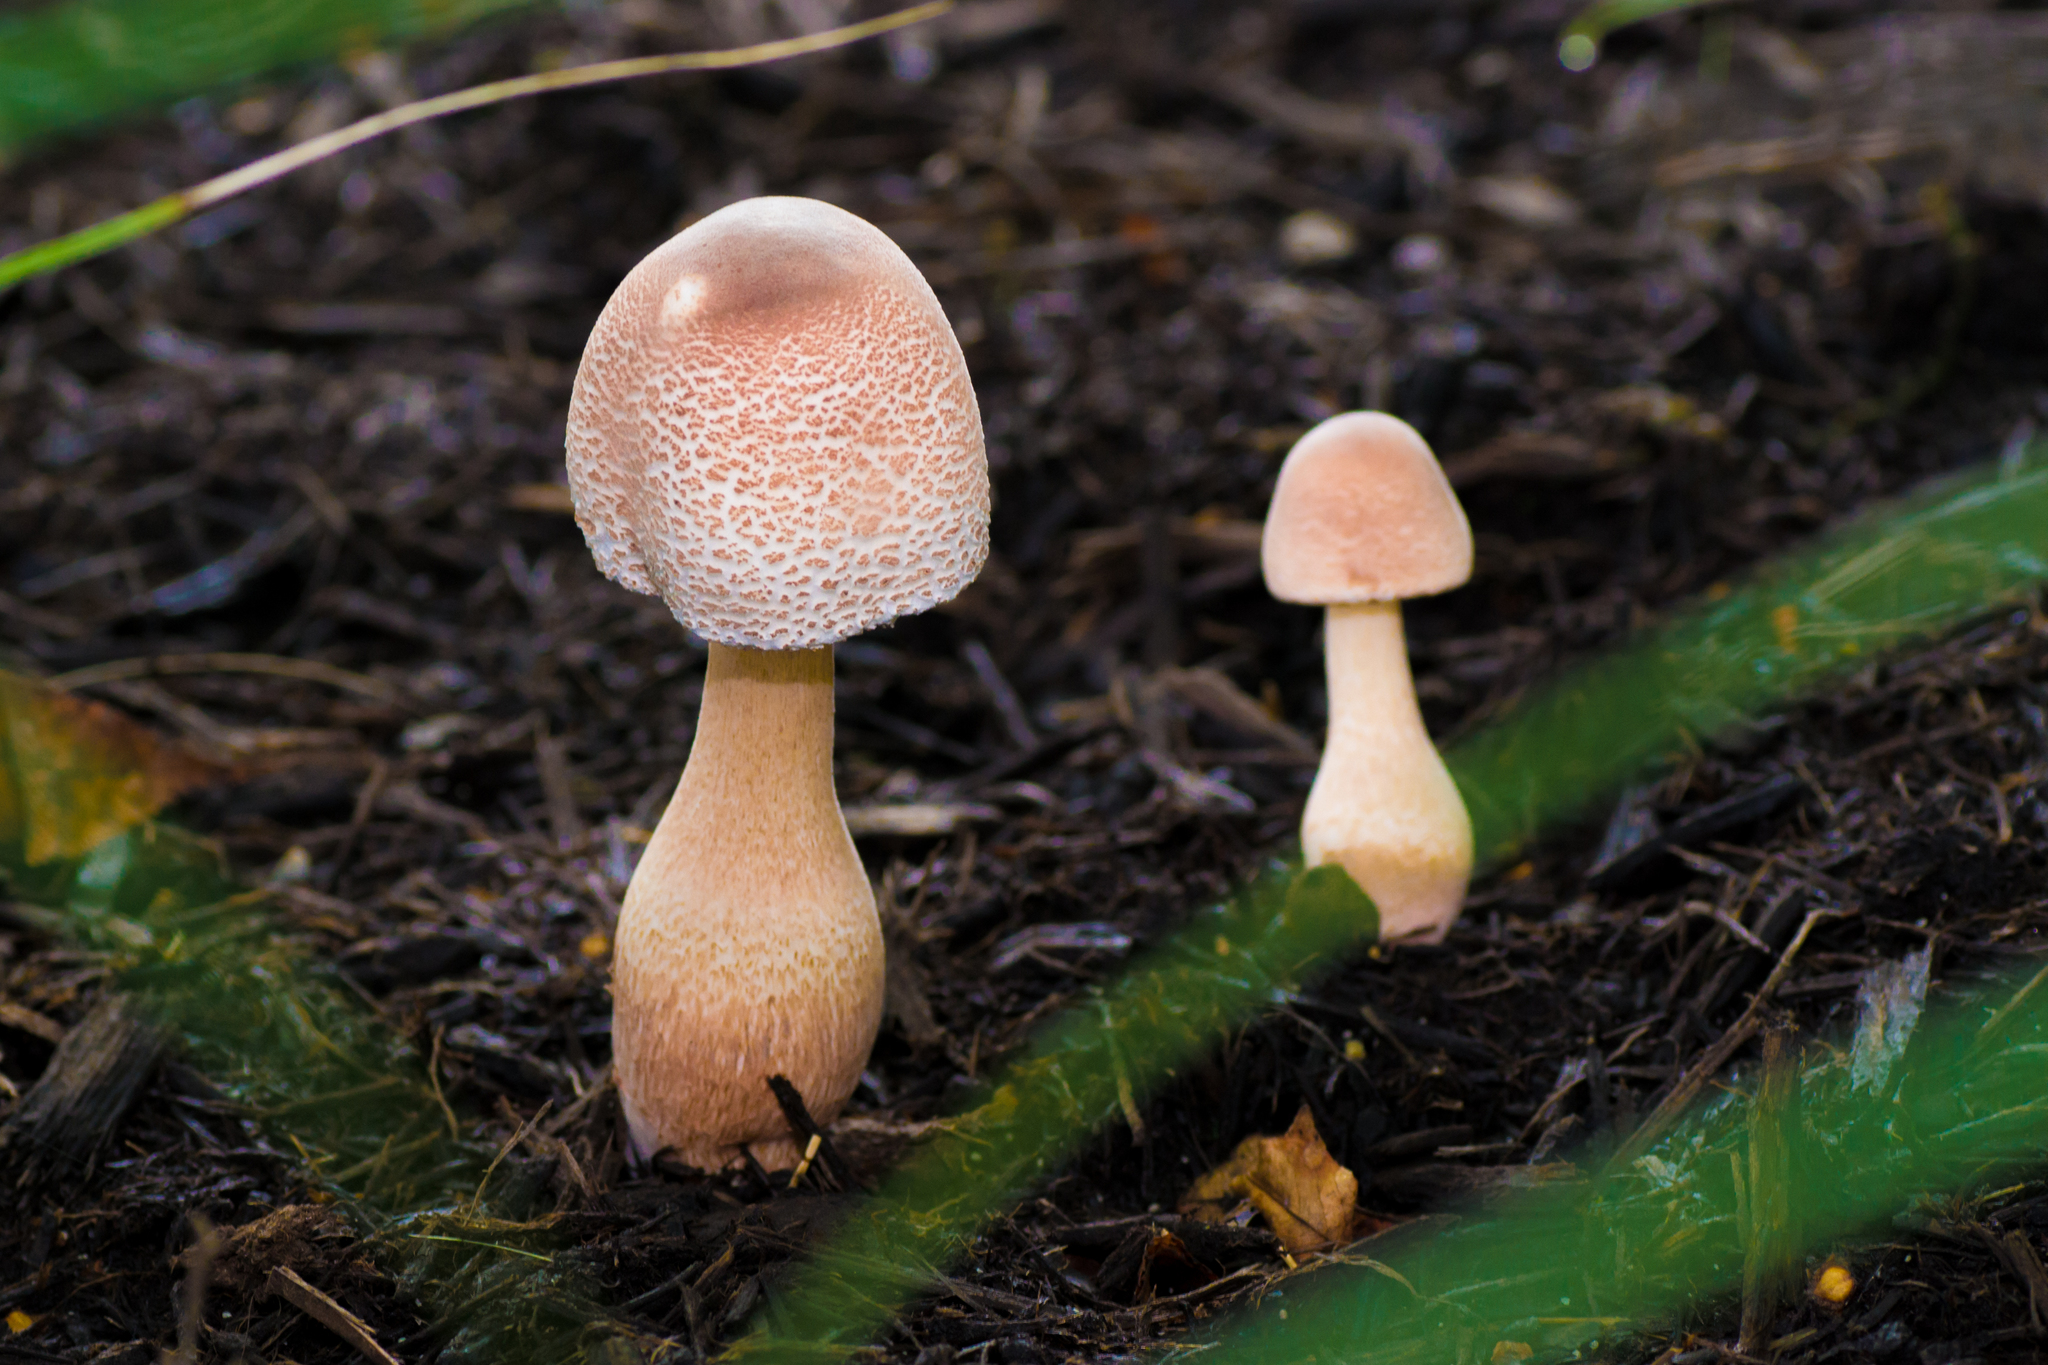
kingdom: Fungi
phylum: Basidiomycota
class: Agaricomycetes
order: Agaricales
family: Agaricaceae
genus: Leucoagaricus
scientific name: Leucoagaricus americanus
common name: Reddening lepiota
